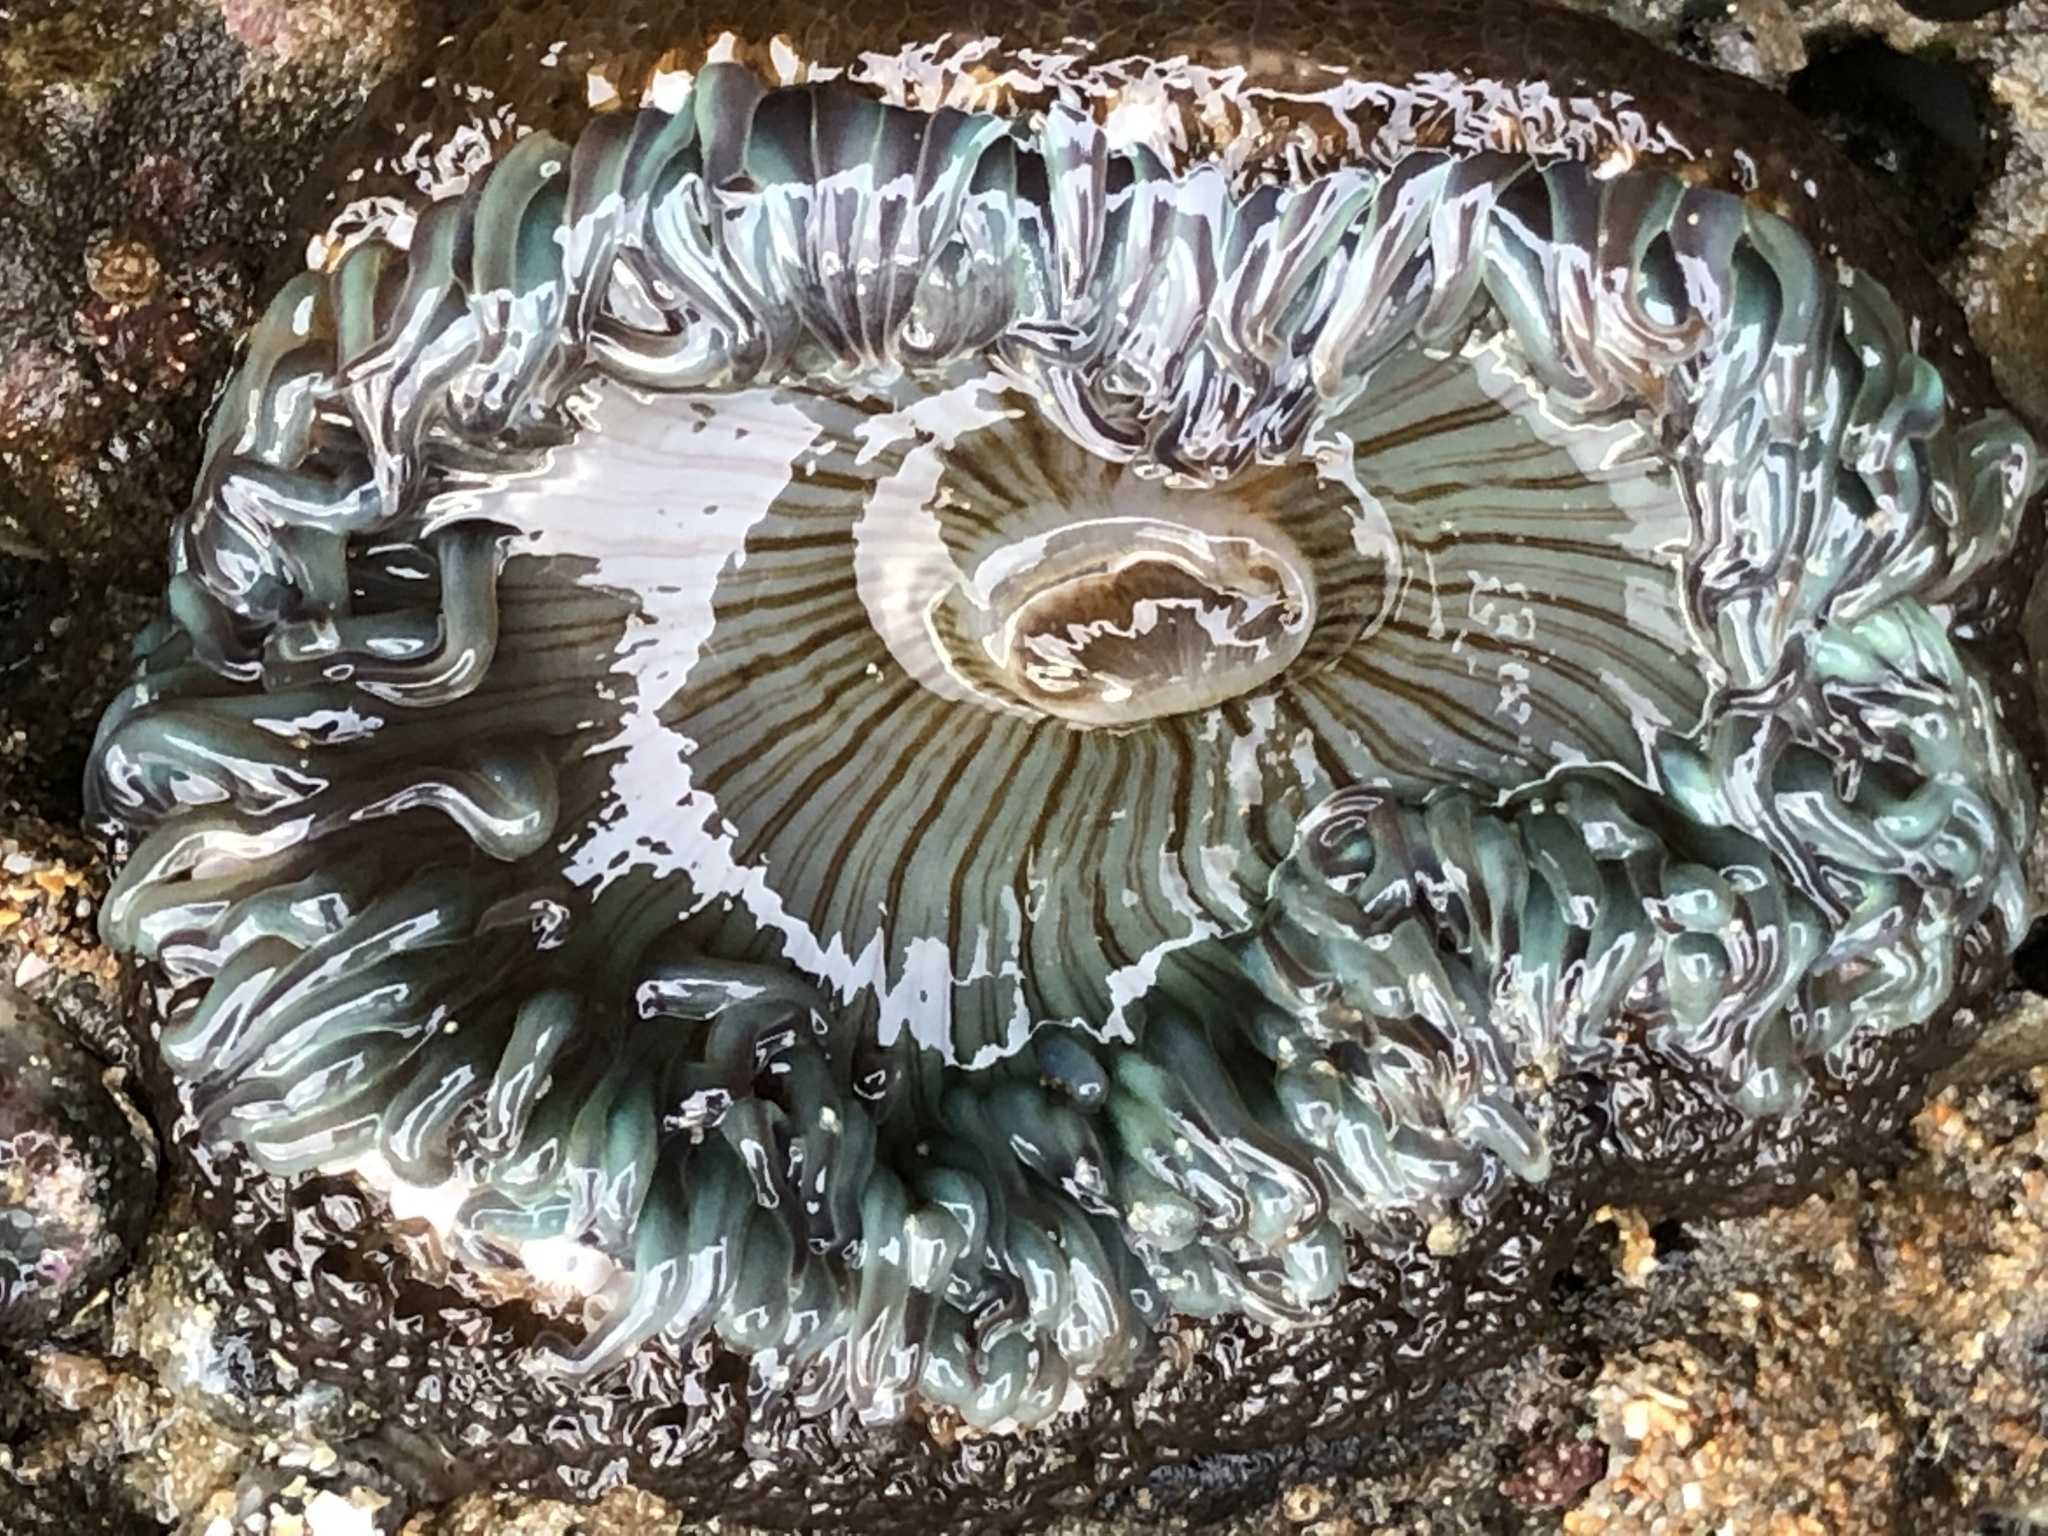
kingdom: Animalia
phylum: Cnidaria
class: Anthozoa
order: Actiniaria
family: Actiniidae
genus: Anthopleura
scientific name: Anthopleura sola
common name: Sun anemone
